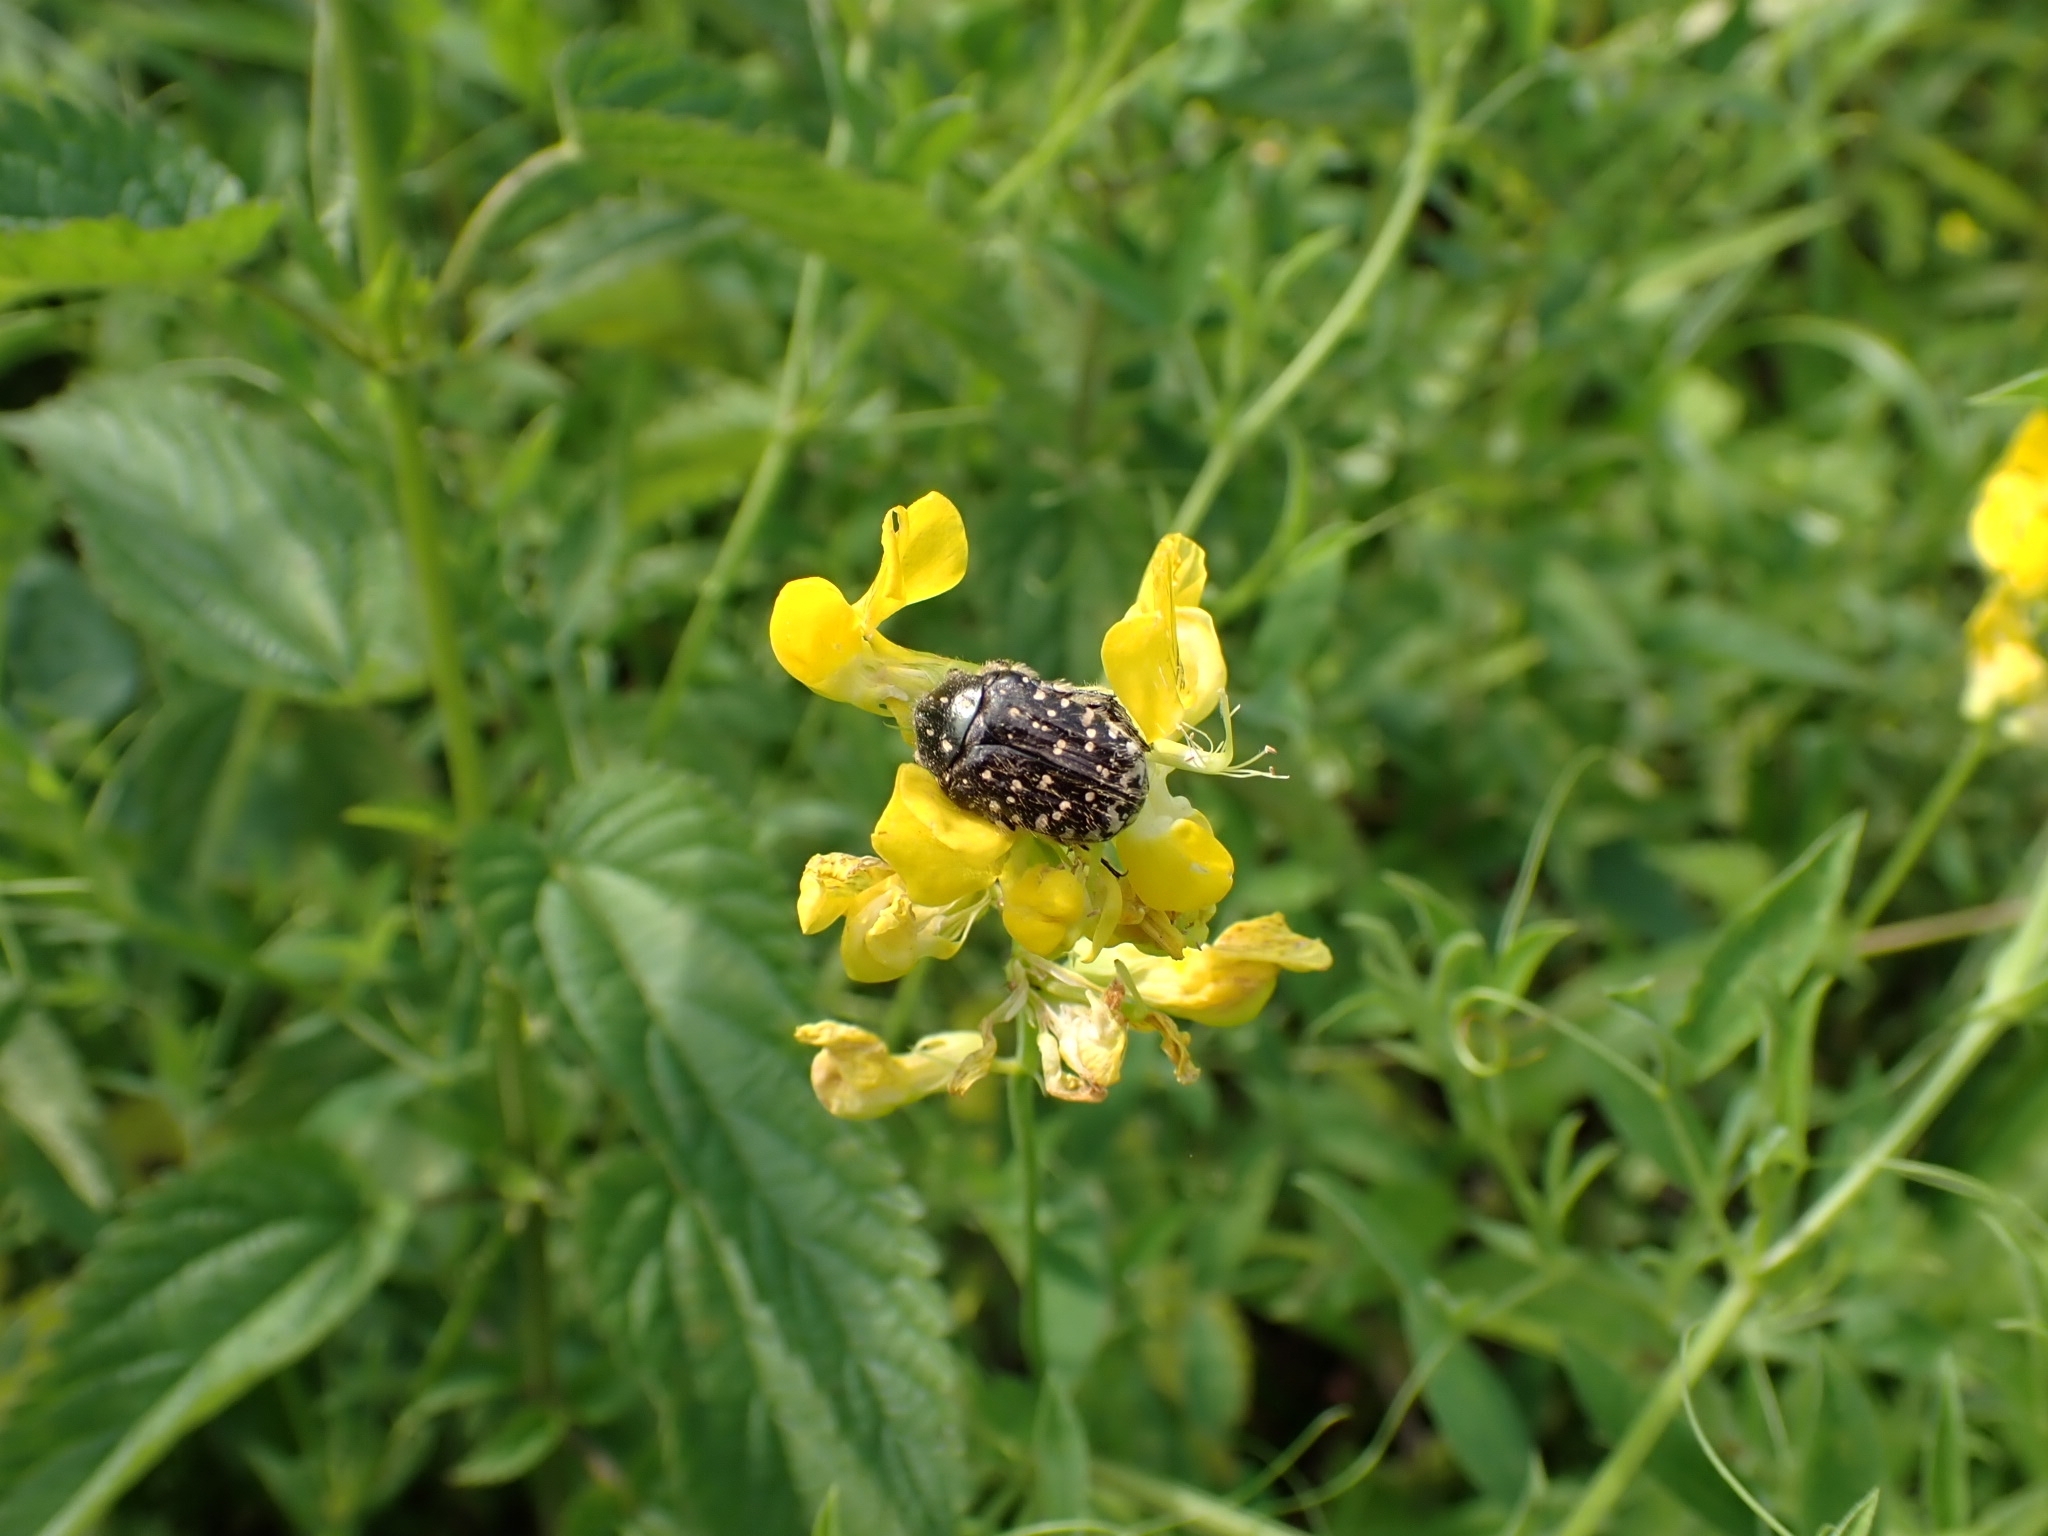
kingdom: Animalia
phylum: Arthropoda
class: Insecta
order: Coleoptera
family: Scarabaeidae
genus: Oxythyrea
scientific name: Oxythyrea funesta
